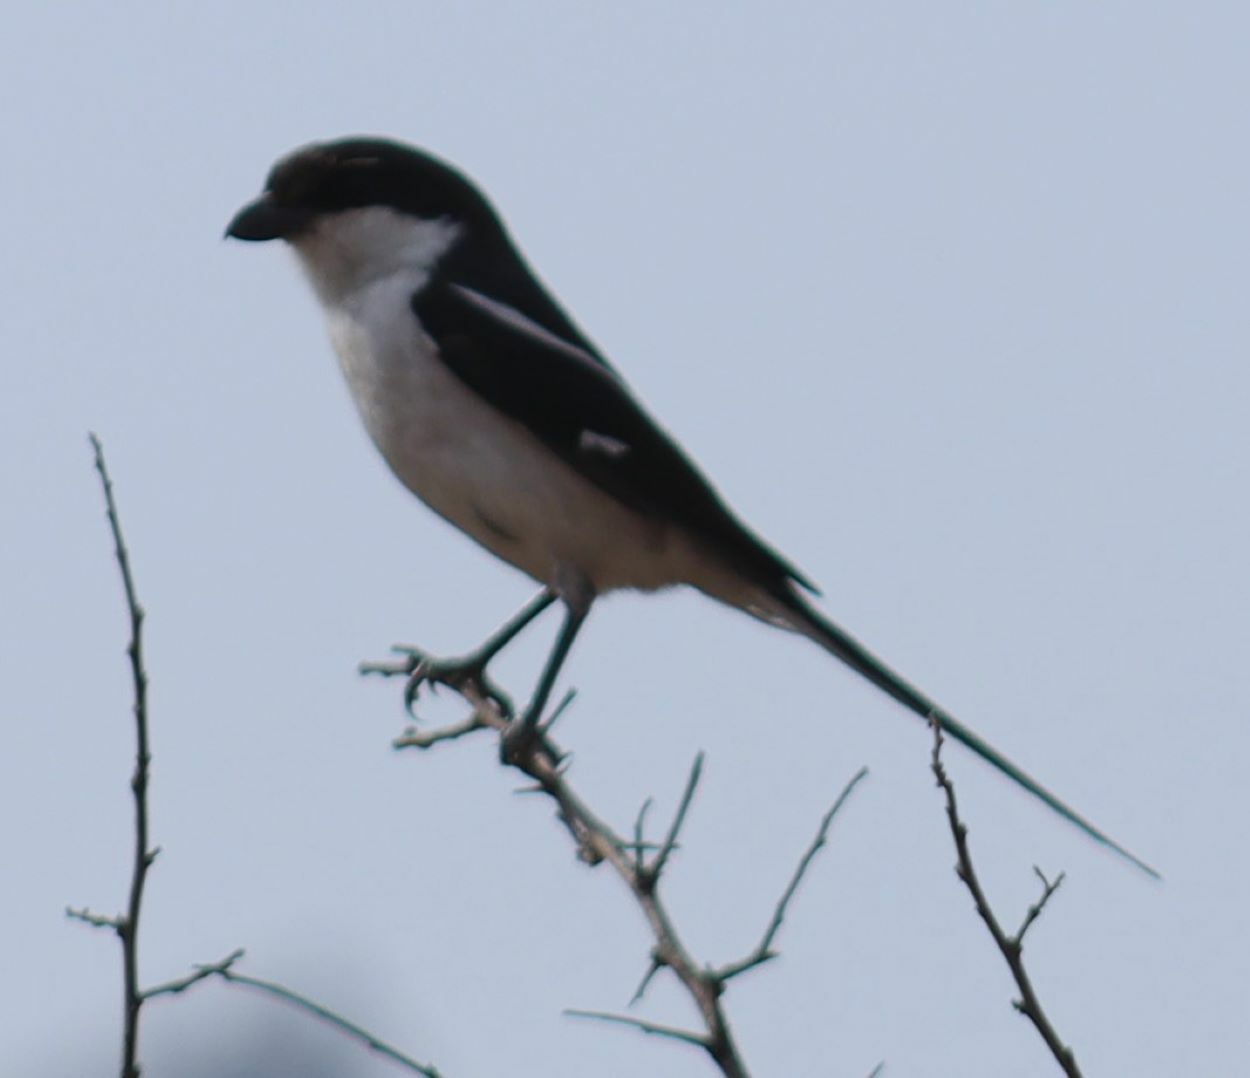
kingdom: Animalia
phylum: Chordata
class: Aves
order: Passeriformes
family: Laniidae
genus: Lanius
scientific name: Lanius collaris
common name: Southern fiscal
